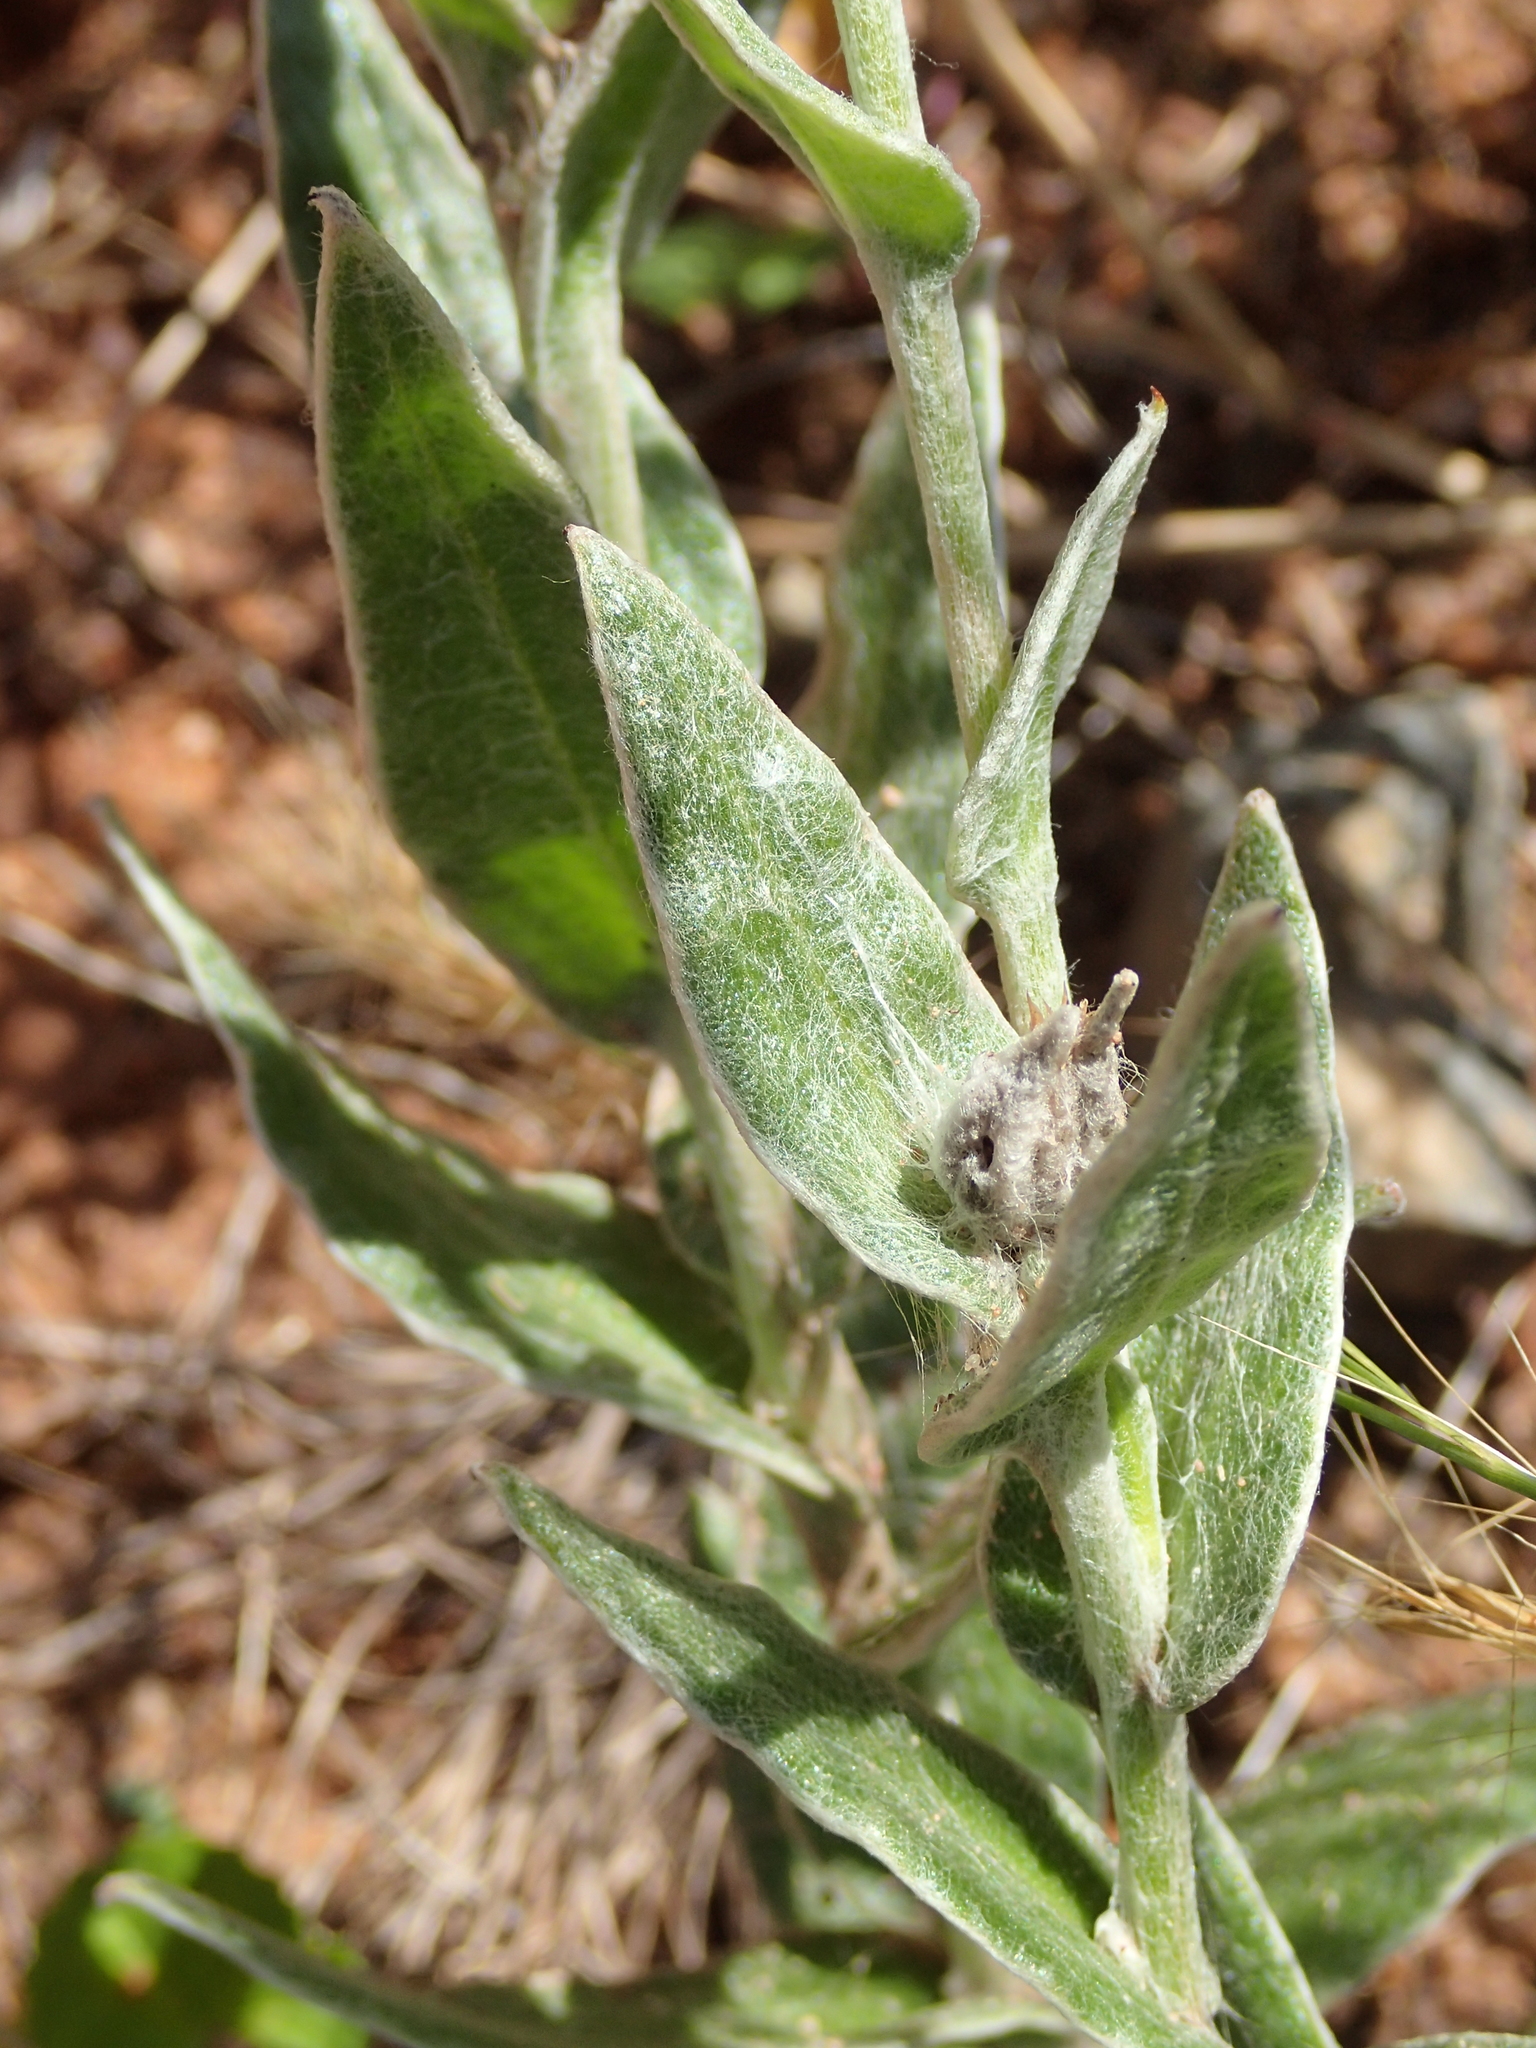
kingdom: Plantae
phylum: Tracheophyta
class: Magnoliopsida
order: Asterales
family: Asteraceae
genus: Helichrysum
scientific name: Helichrysum appendiculatum
